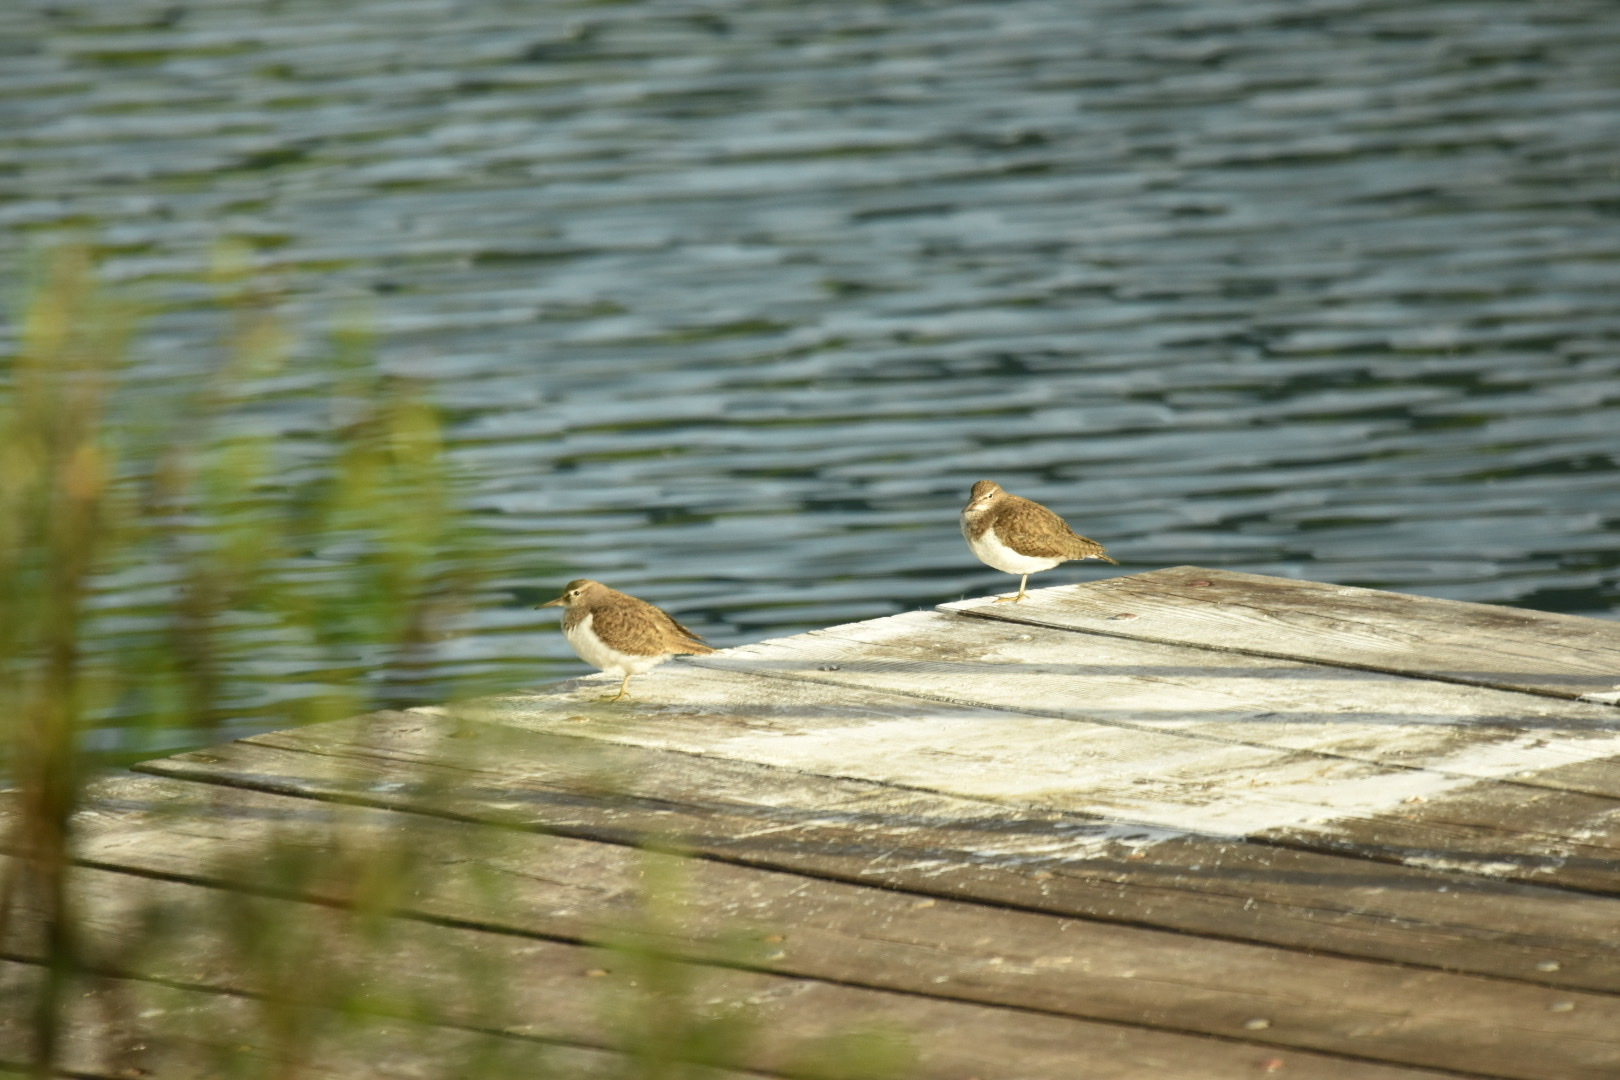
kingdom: Animalia
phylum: Chordata
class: Aves
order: Charadriiformes
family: Scolopacidae
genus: Actitis
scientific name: Actitis hypoleucos
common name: Common sandpiper
